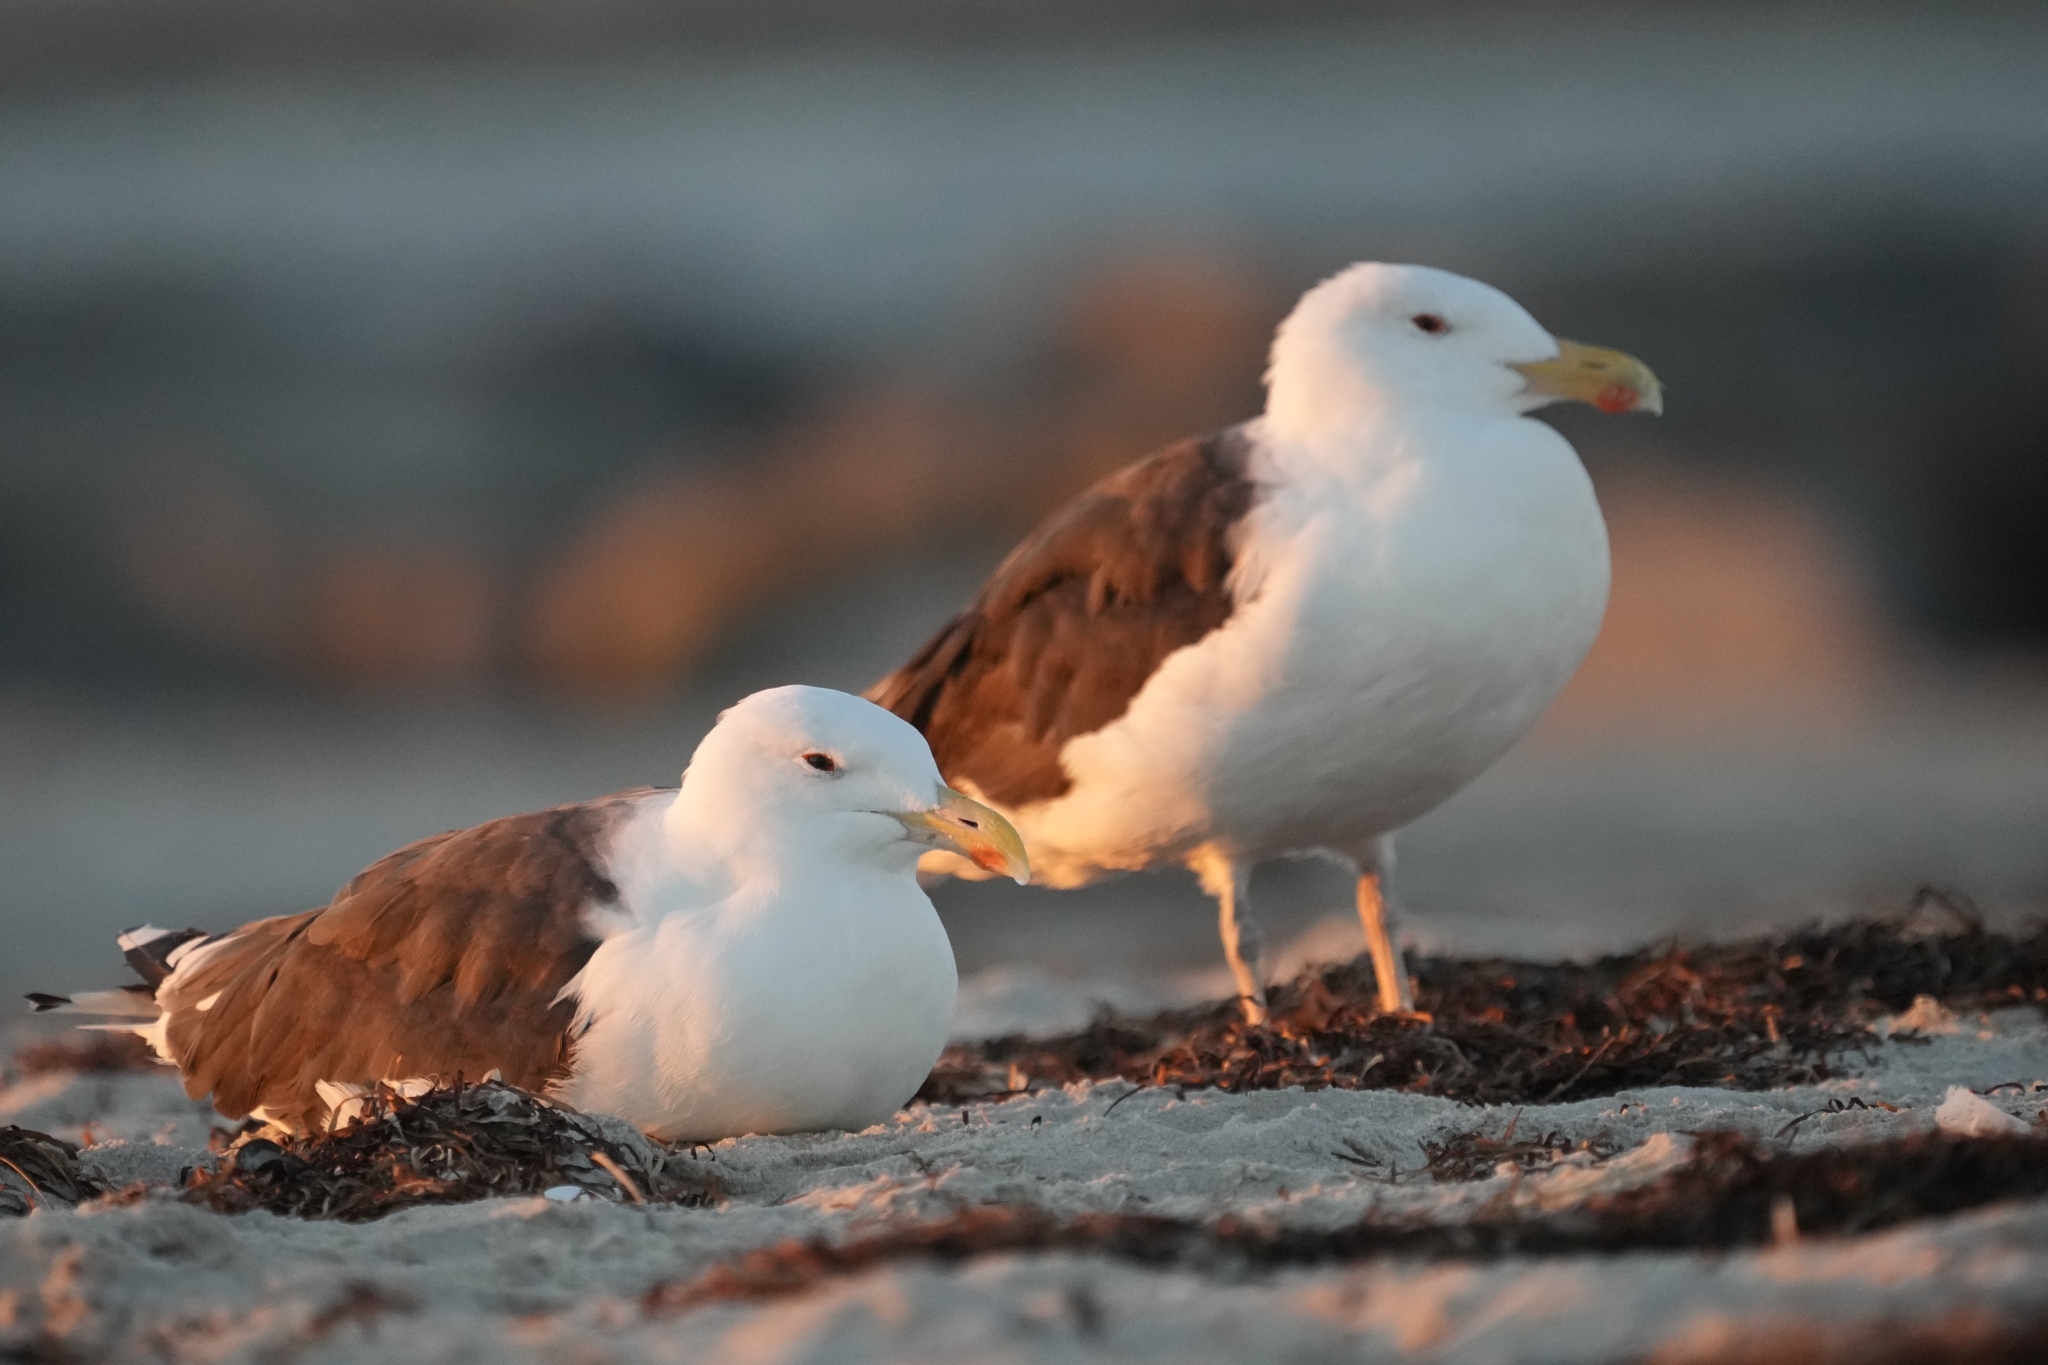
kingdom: Animalia
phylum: Chordata
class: Aves
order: Charadriiformes
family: Laridae
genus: Larus
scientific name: Larus marinus
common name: Great black-backed gull
